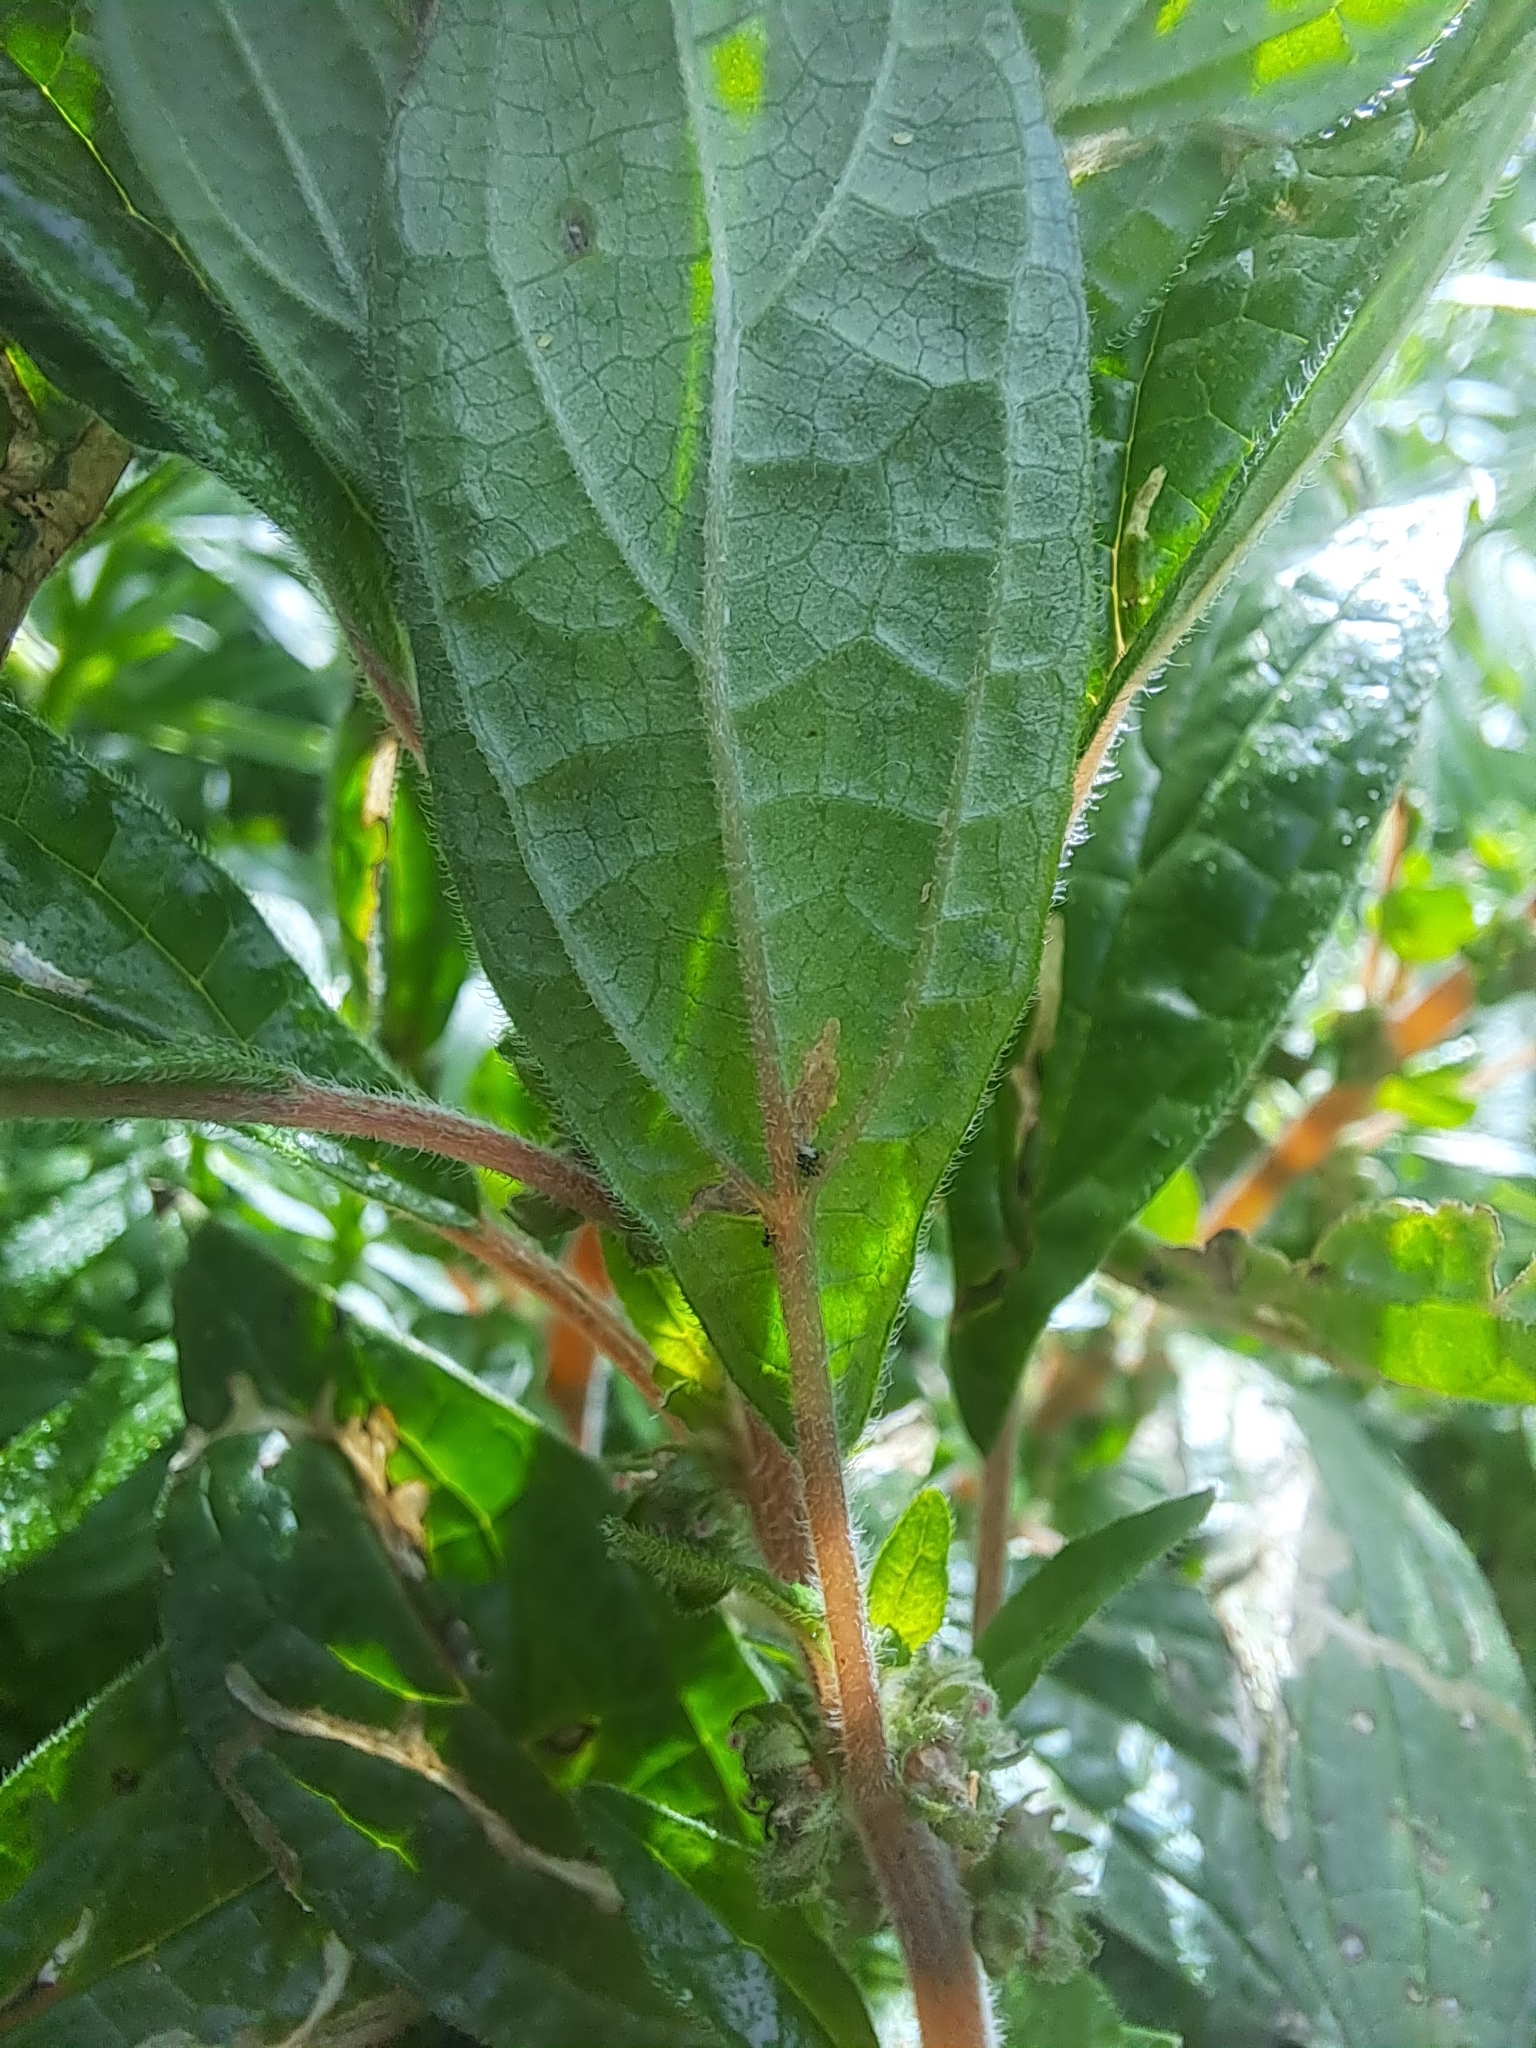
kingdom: Plantae
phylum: Tracheophyta
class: Magnoliopsida
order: Rosales
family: Urticaceae
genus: Parietaria
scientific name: Parietaria judaica
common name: Pellitory-of-the-wall
